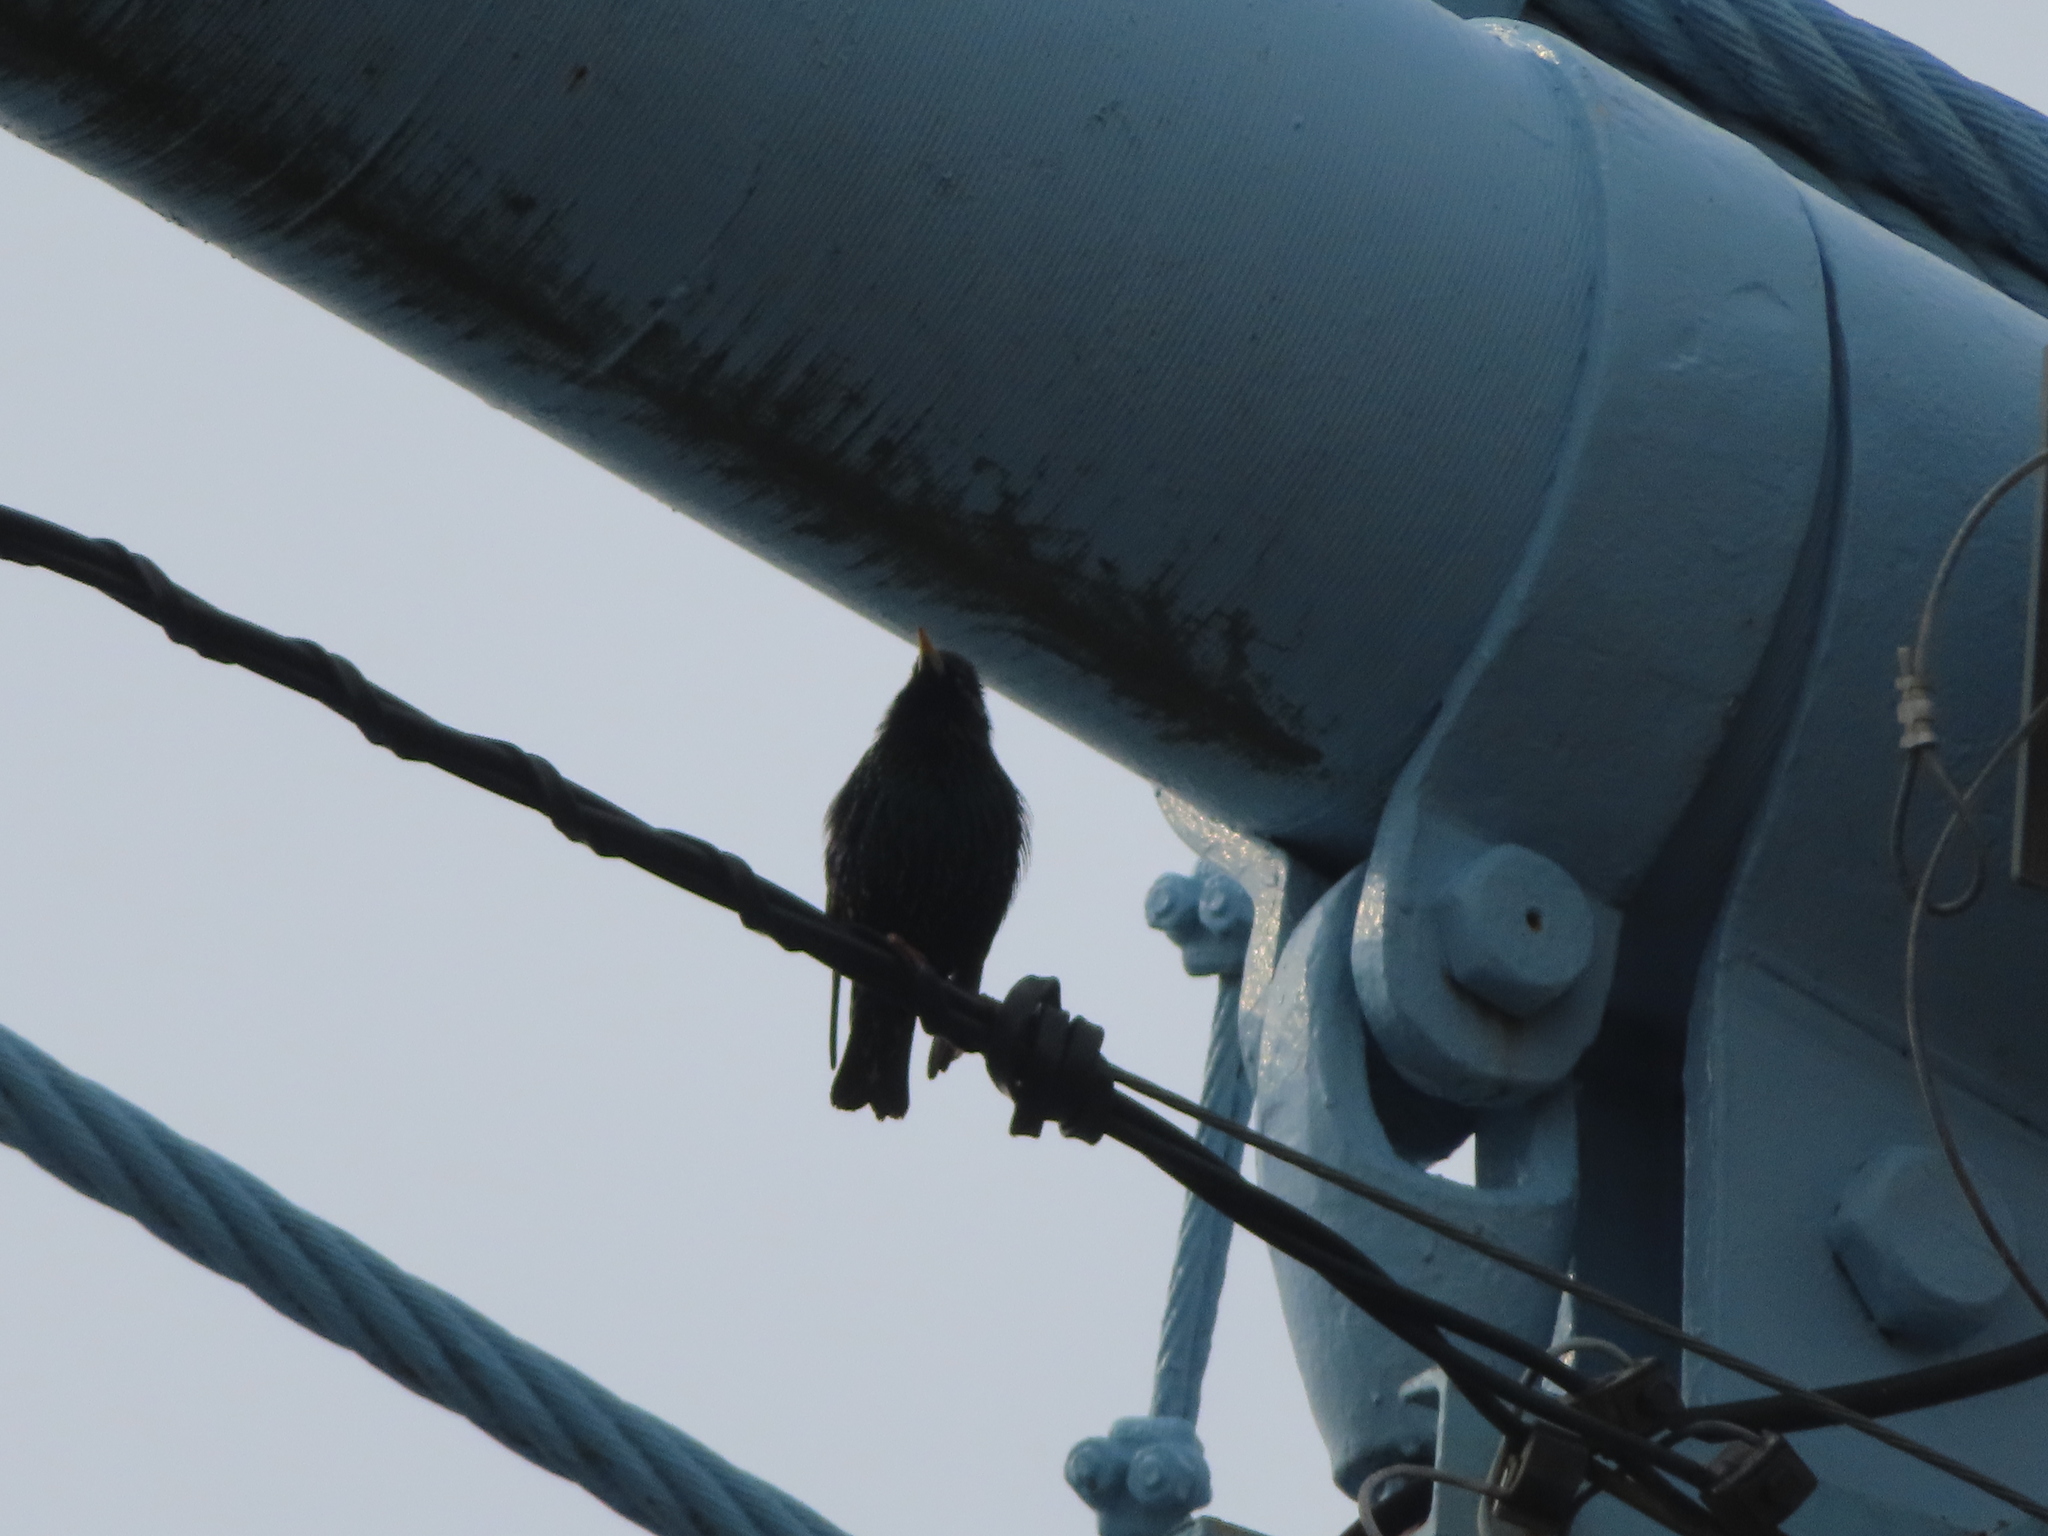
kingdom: Animalia
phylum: Chordata
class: Aves
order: Passeriformes
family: Sturnidae
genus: Sturnus
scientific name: Sturnus vulgaris
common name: Common starling
